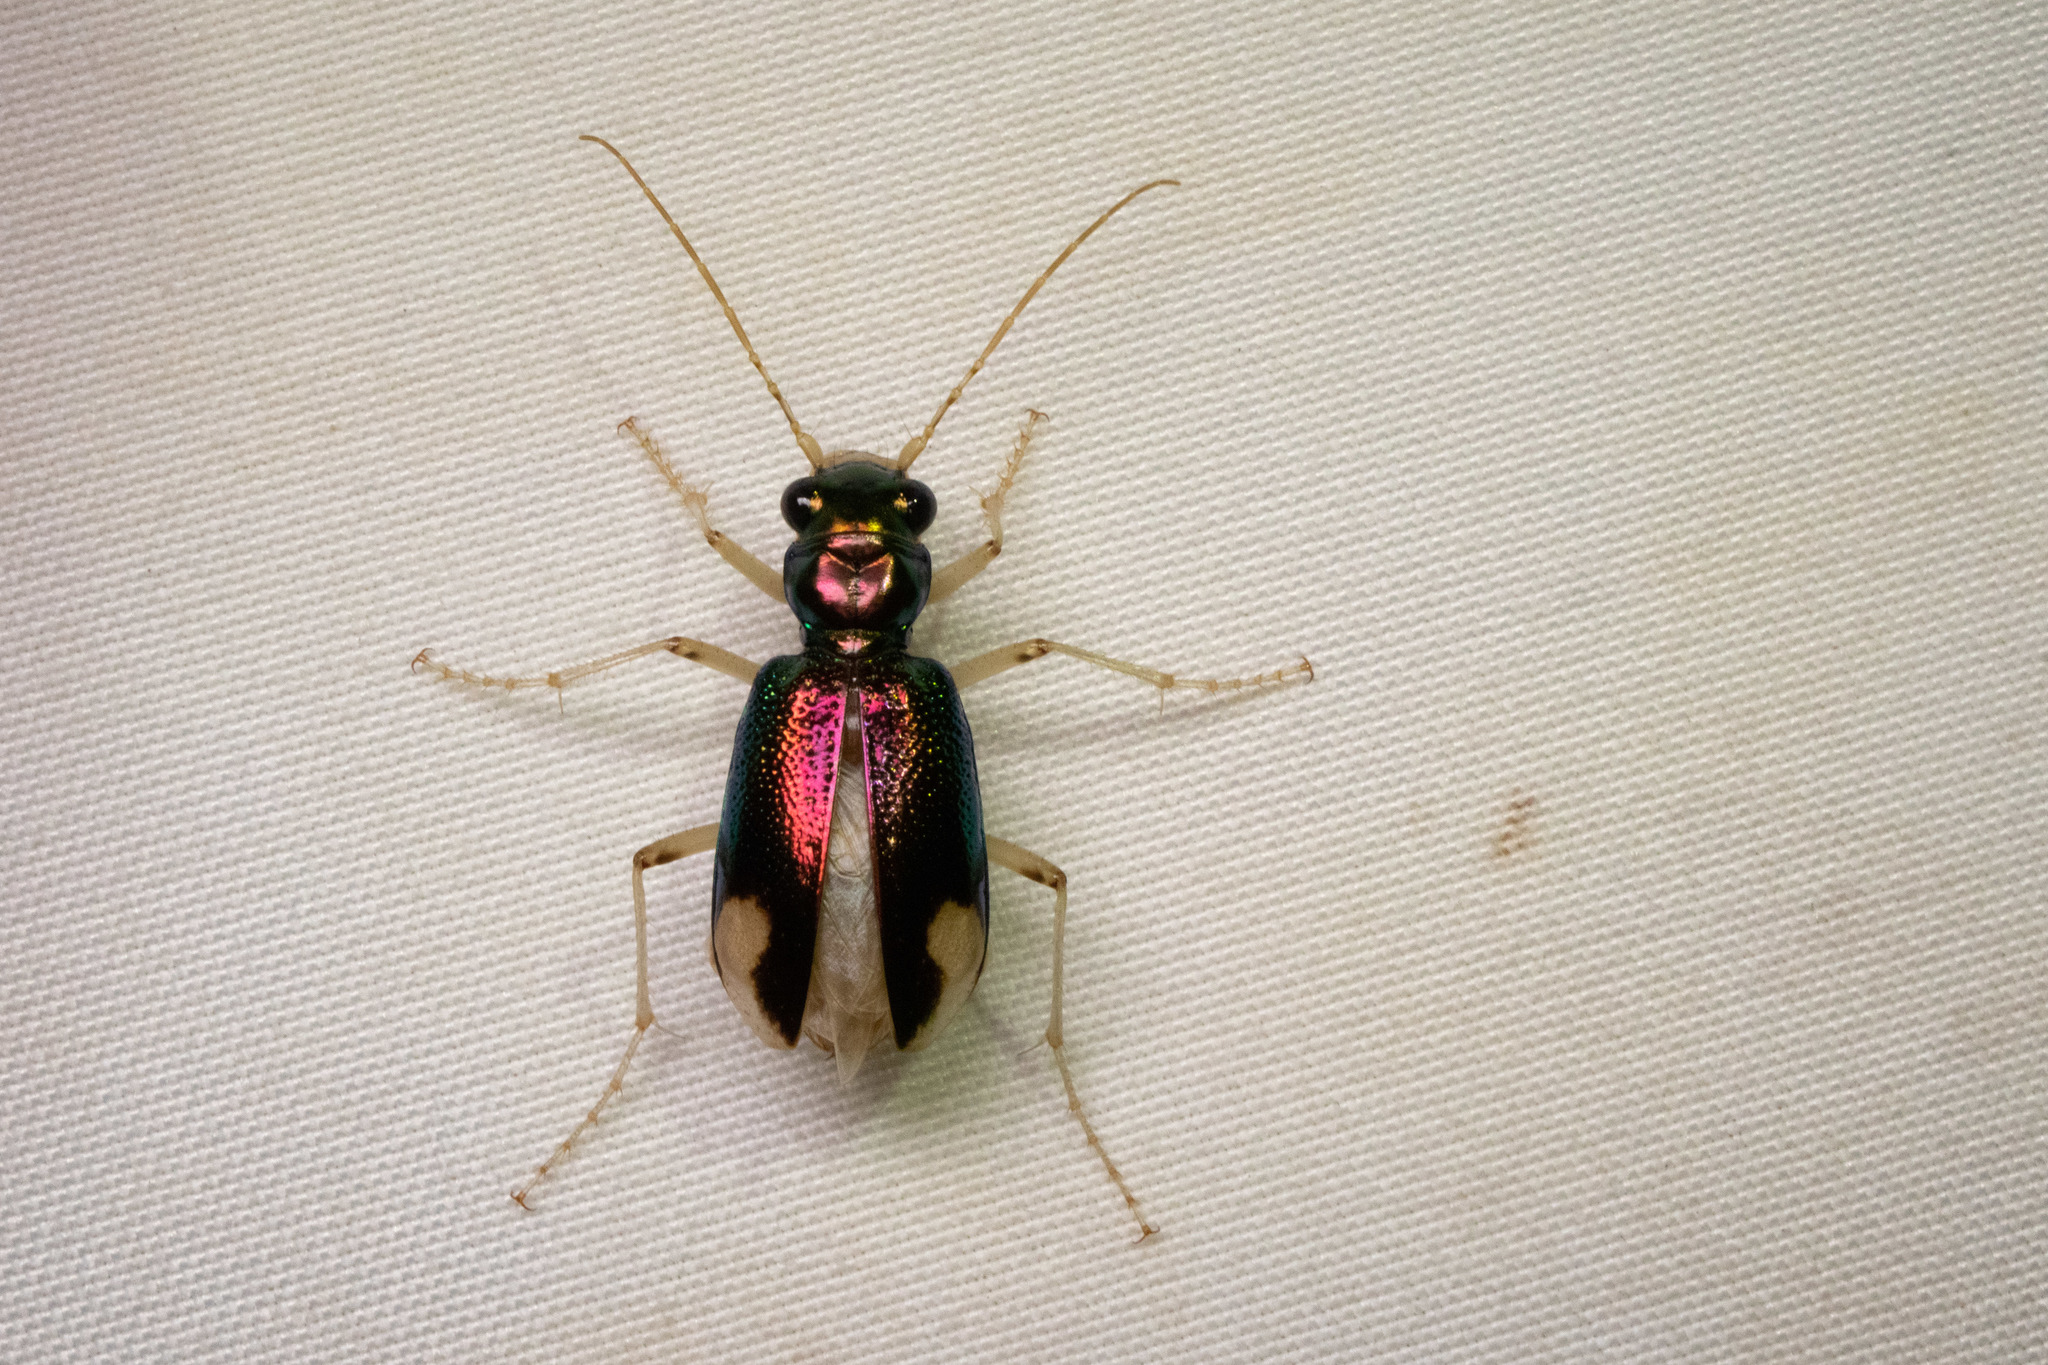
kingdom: Animalia
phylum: Arthropoda
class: Insecta
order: Coleoptera
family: Carabidae
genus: Tetracha
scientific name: Tetracha carolina
